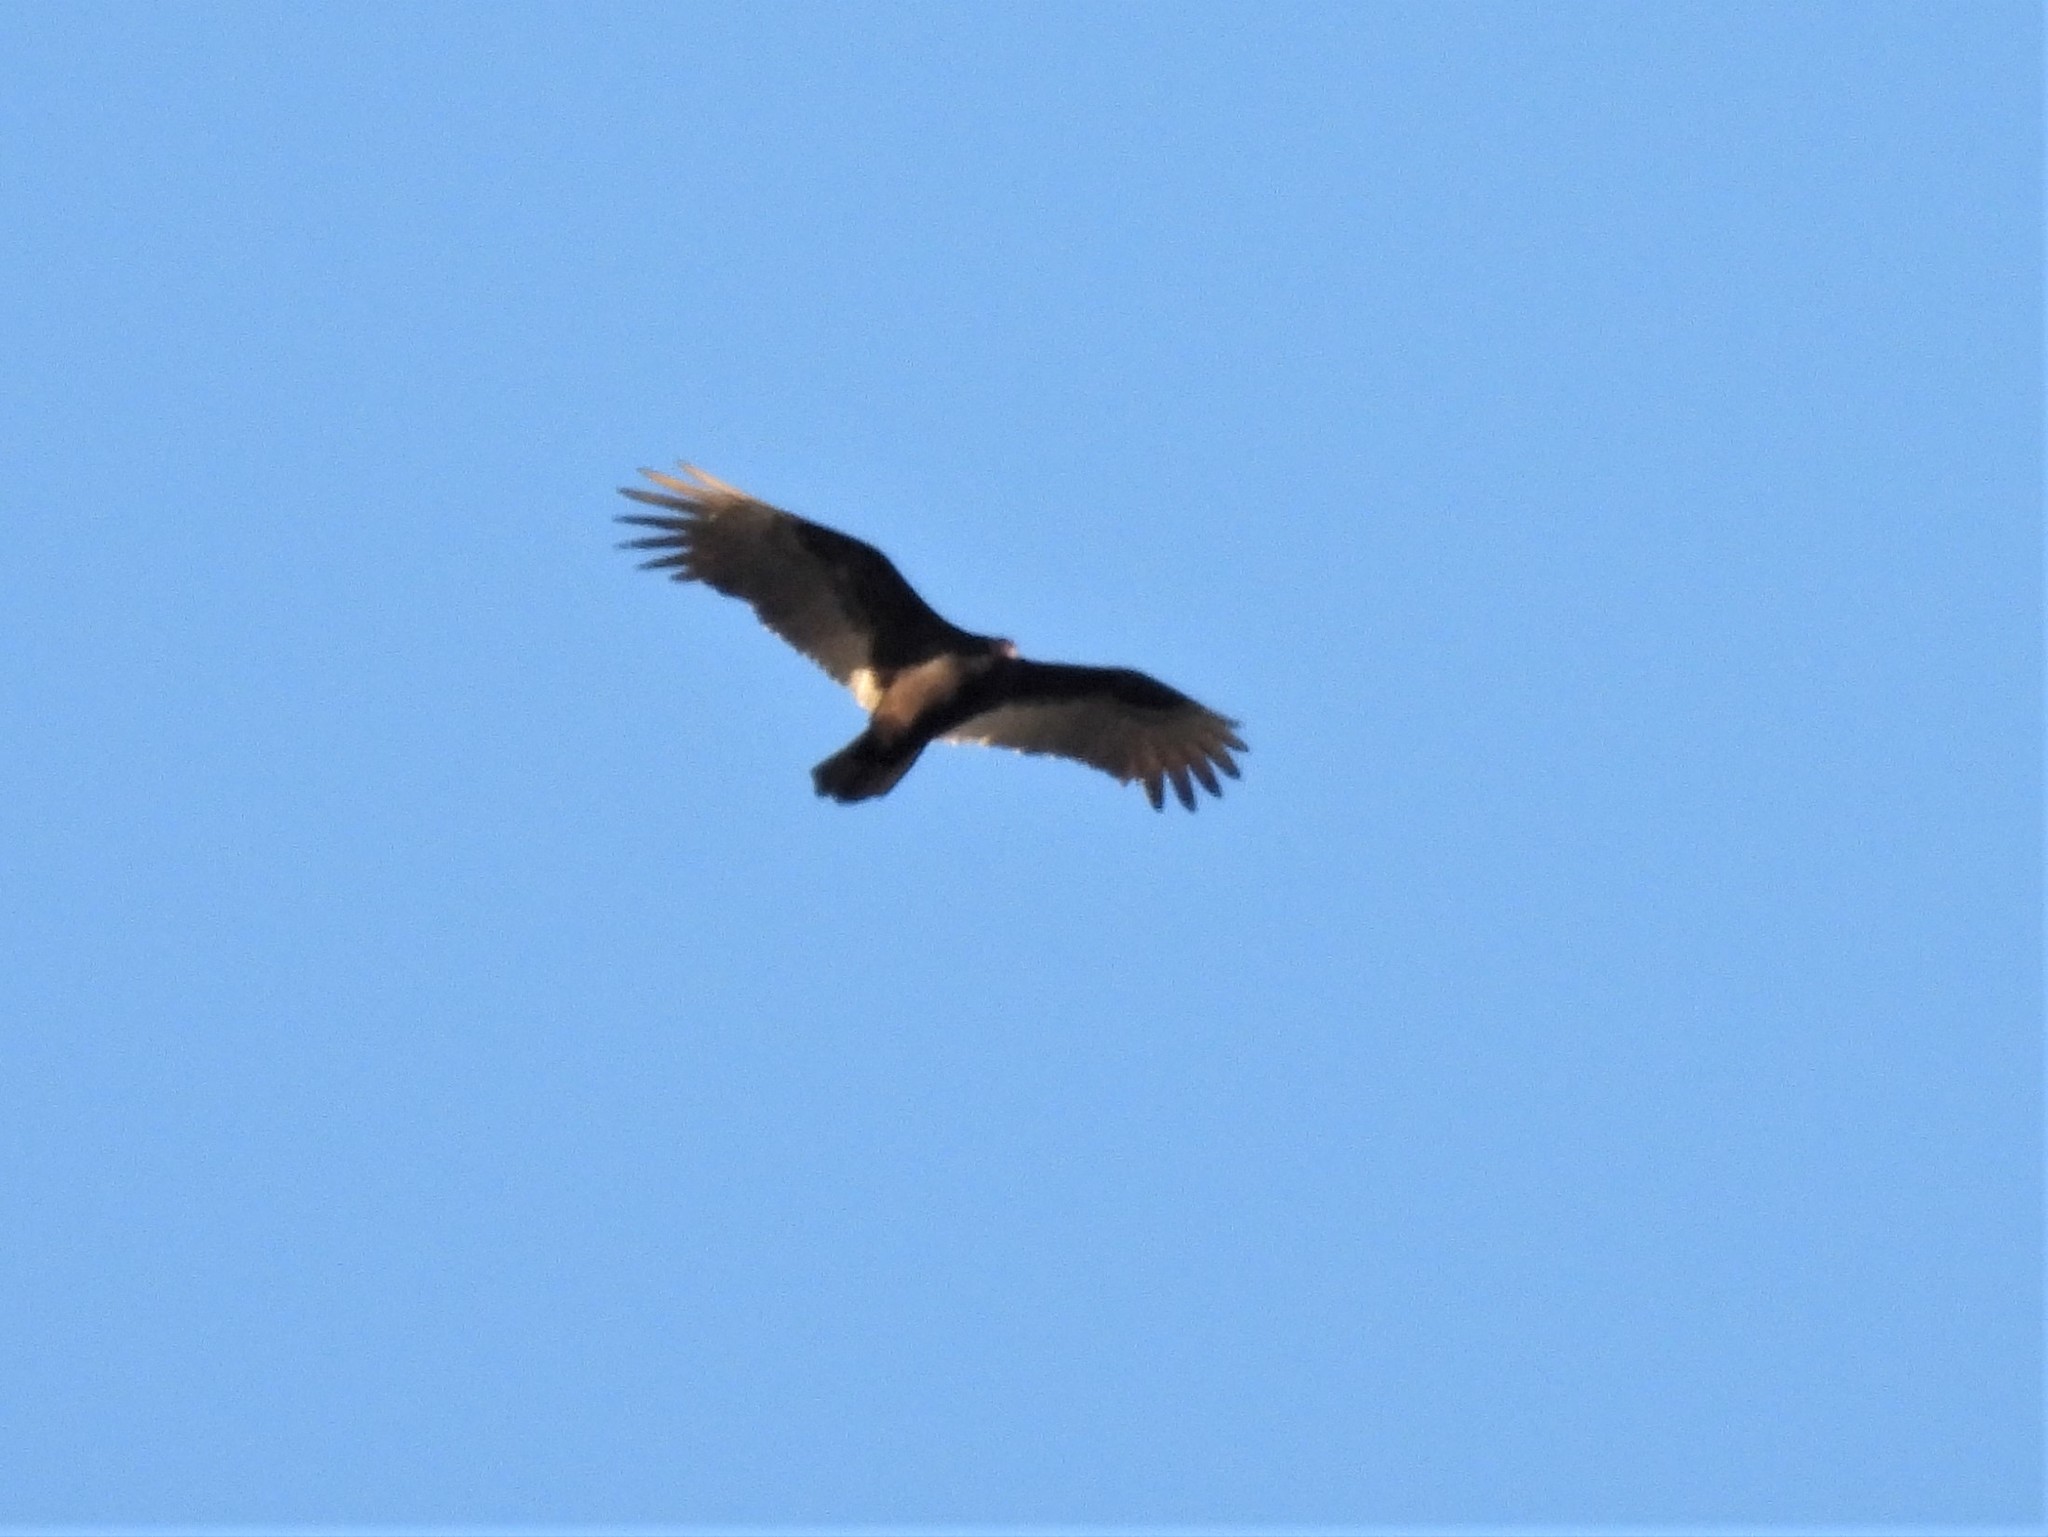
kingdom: Animalia
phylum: Chordata
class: Aves
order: Accipitriformes
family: Cathartidae
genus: Cathartes
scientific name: Cathartes aura
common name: Turkey vulture
